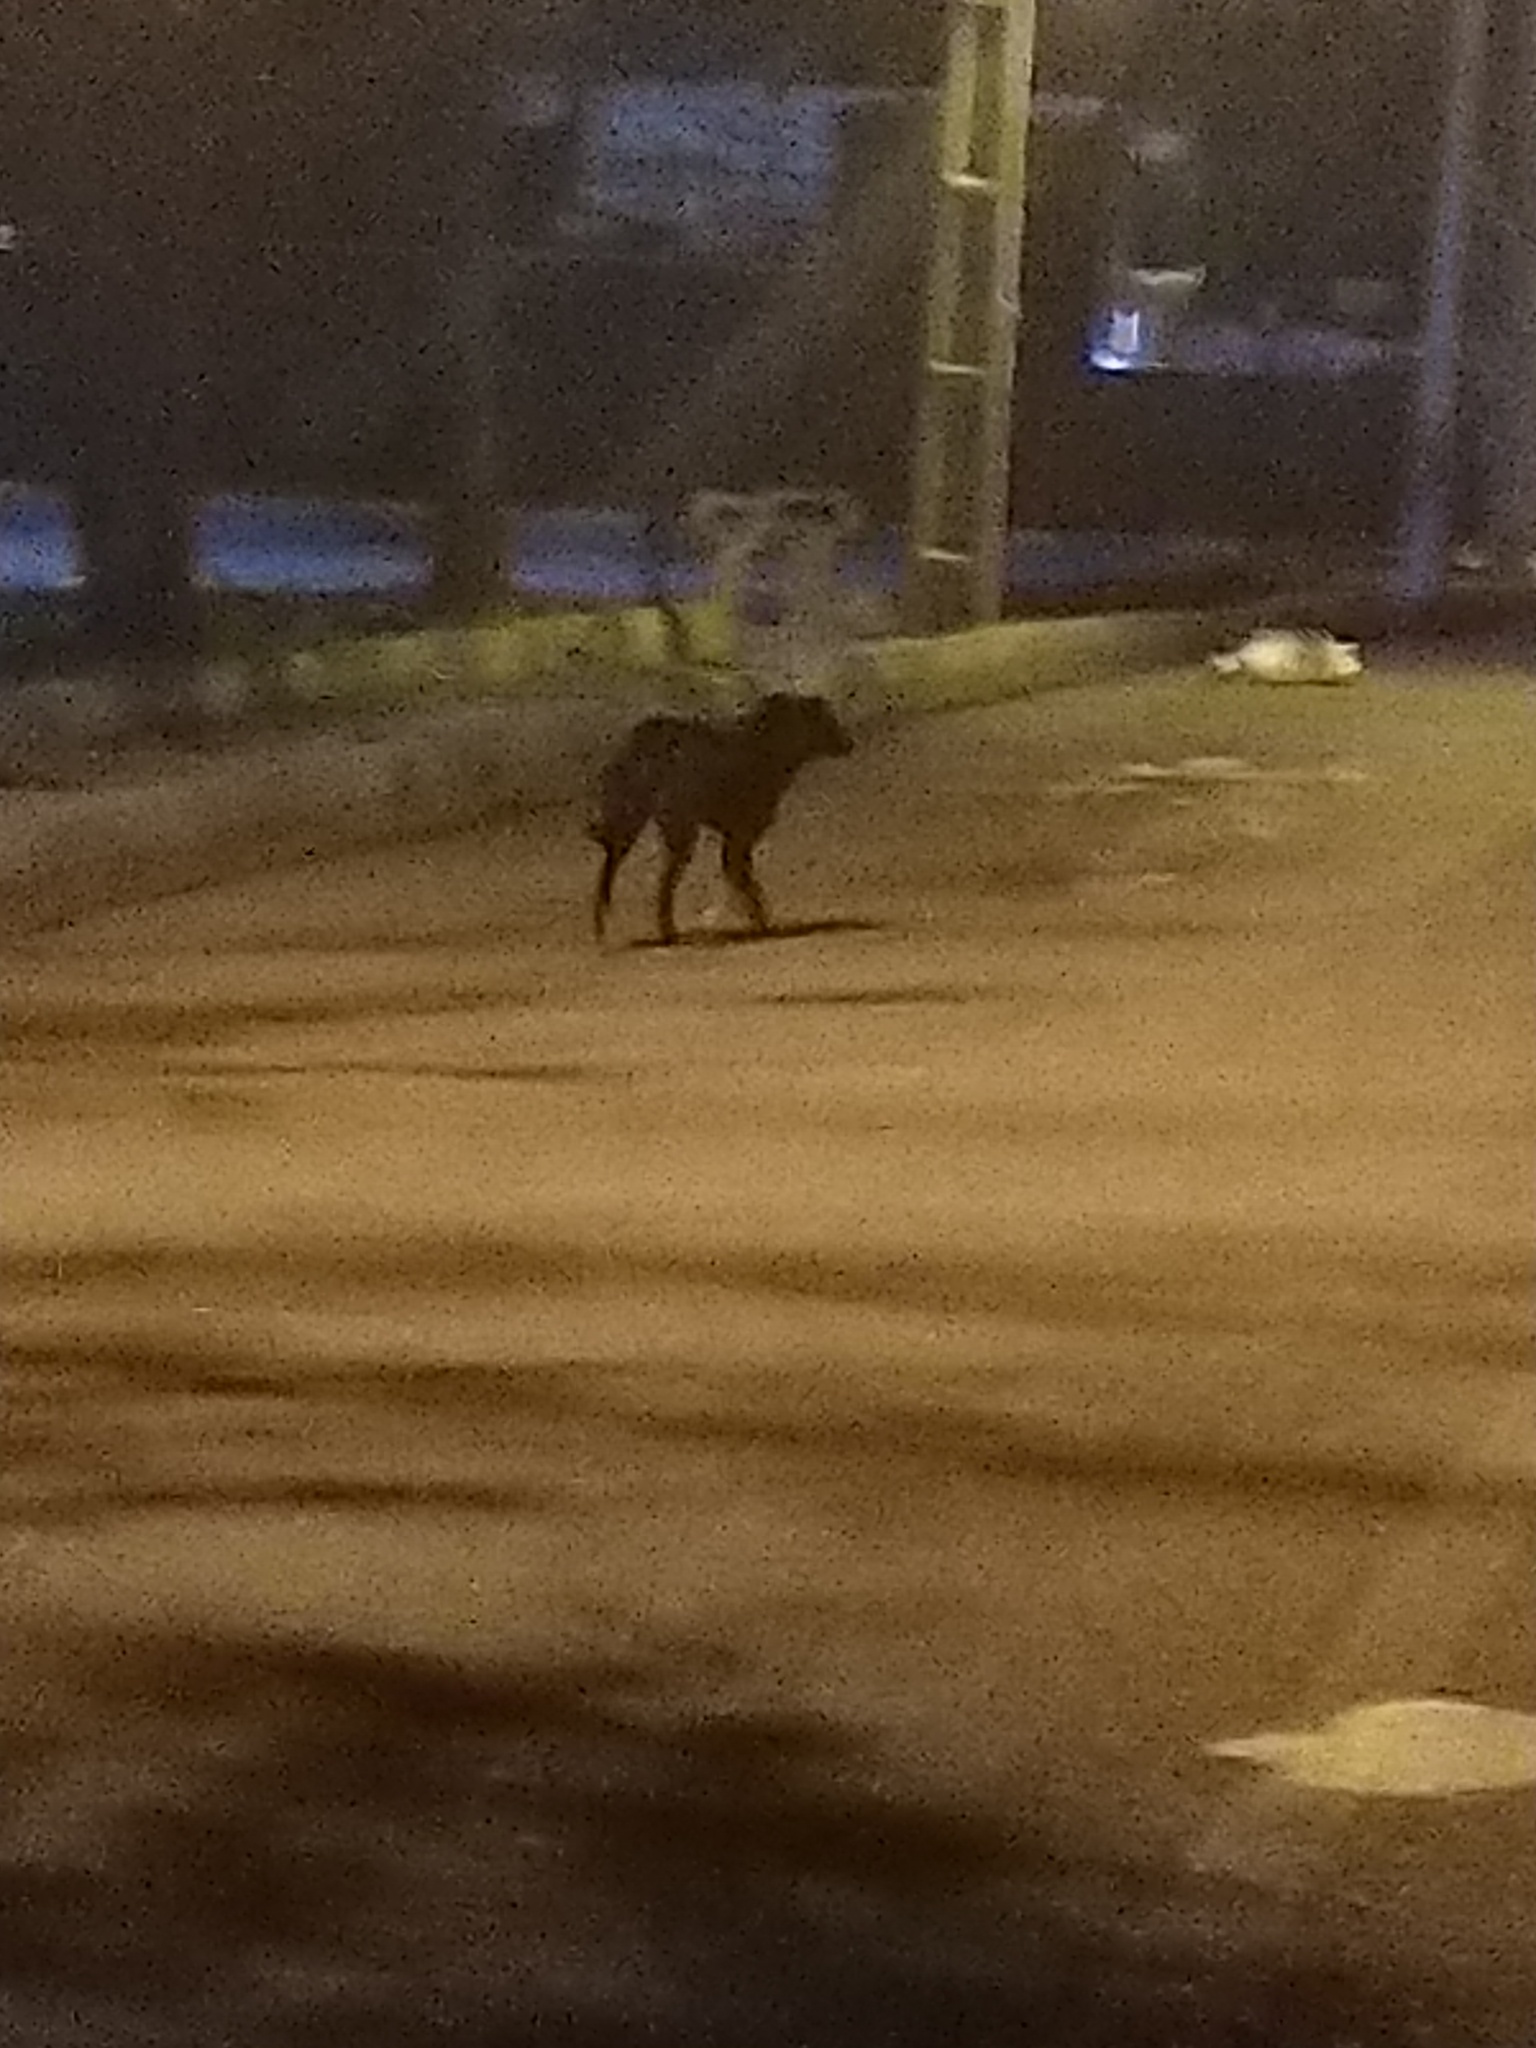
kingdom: Animalia
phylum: Chordata
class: Mammalia
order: Carnivora
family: Canidae
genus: Canis
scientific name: Canis lupus
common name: Gray wolf
